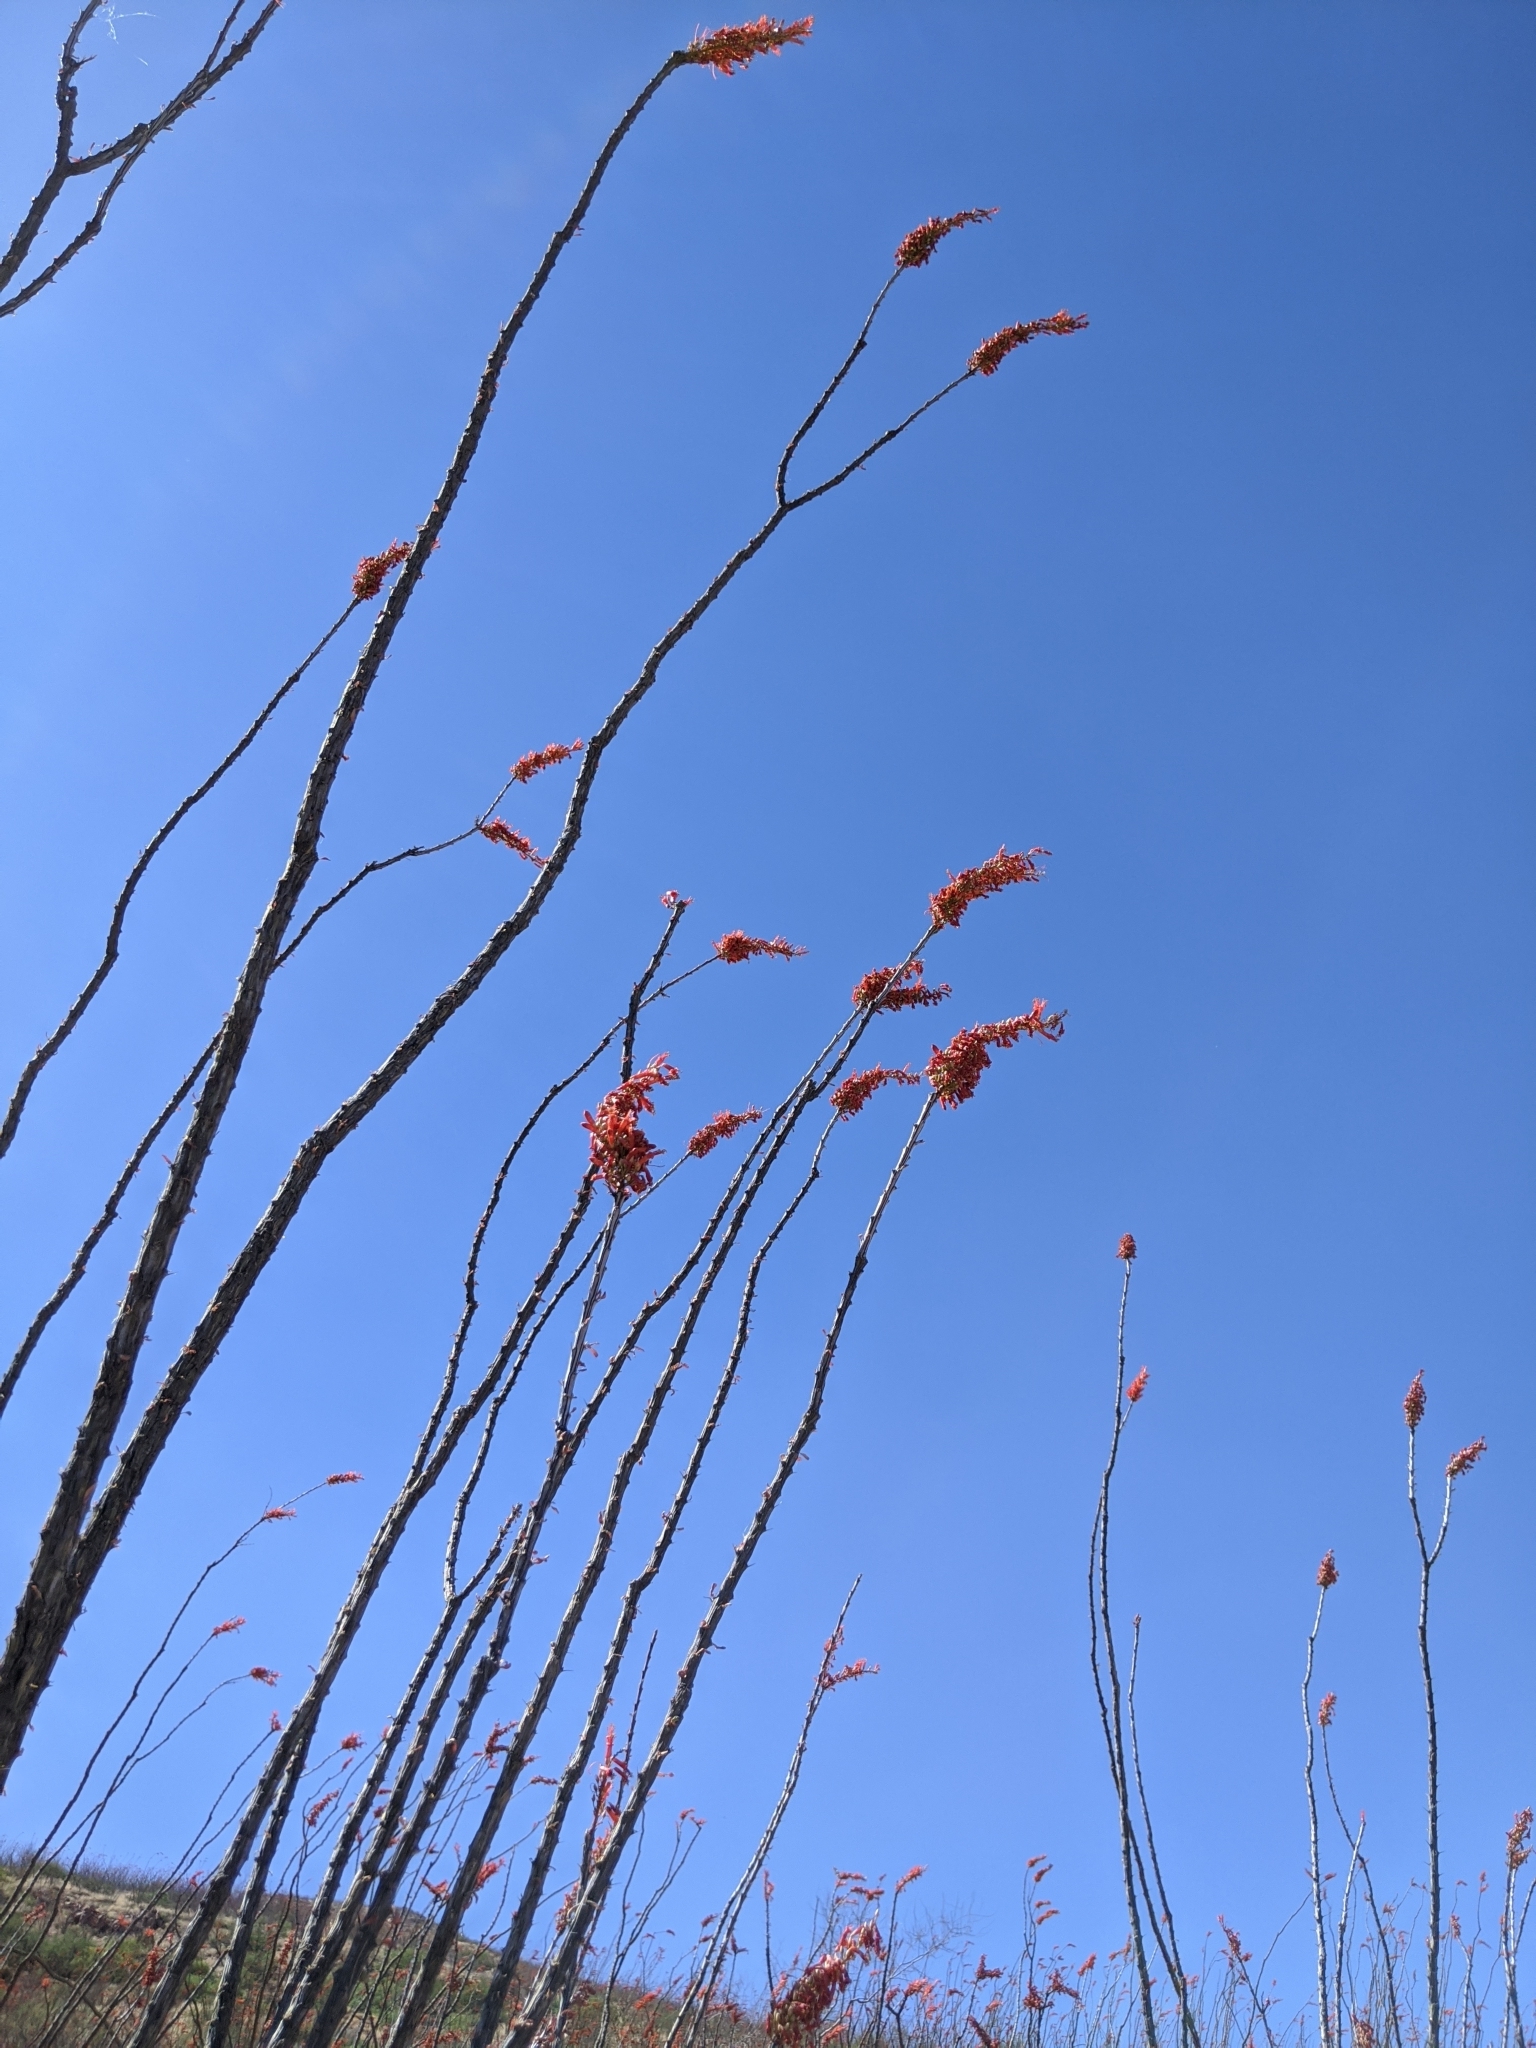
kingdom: Plantae
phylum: Tracheophyta
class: Magnoliopsida
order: Ericales
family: Fouquieriaceae
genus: Fouquieria
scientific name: Fouquieria splendens
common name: Vine-cactus
